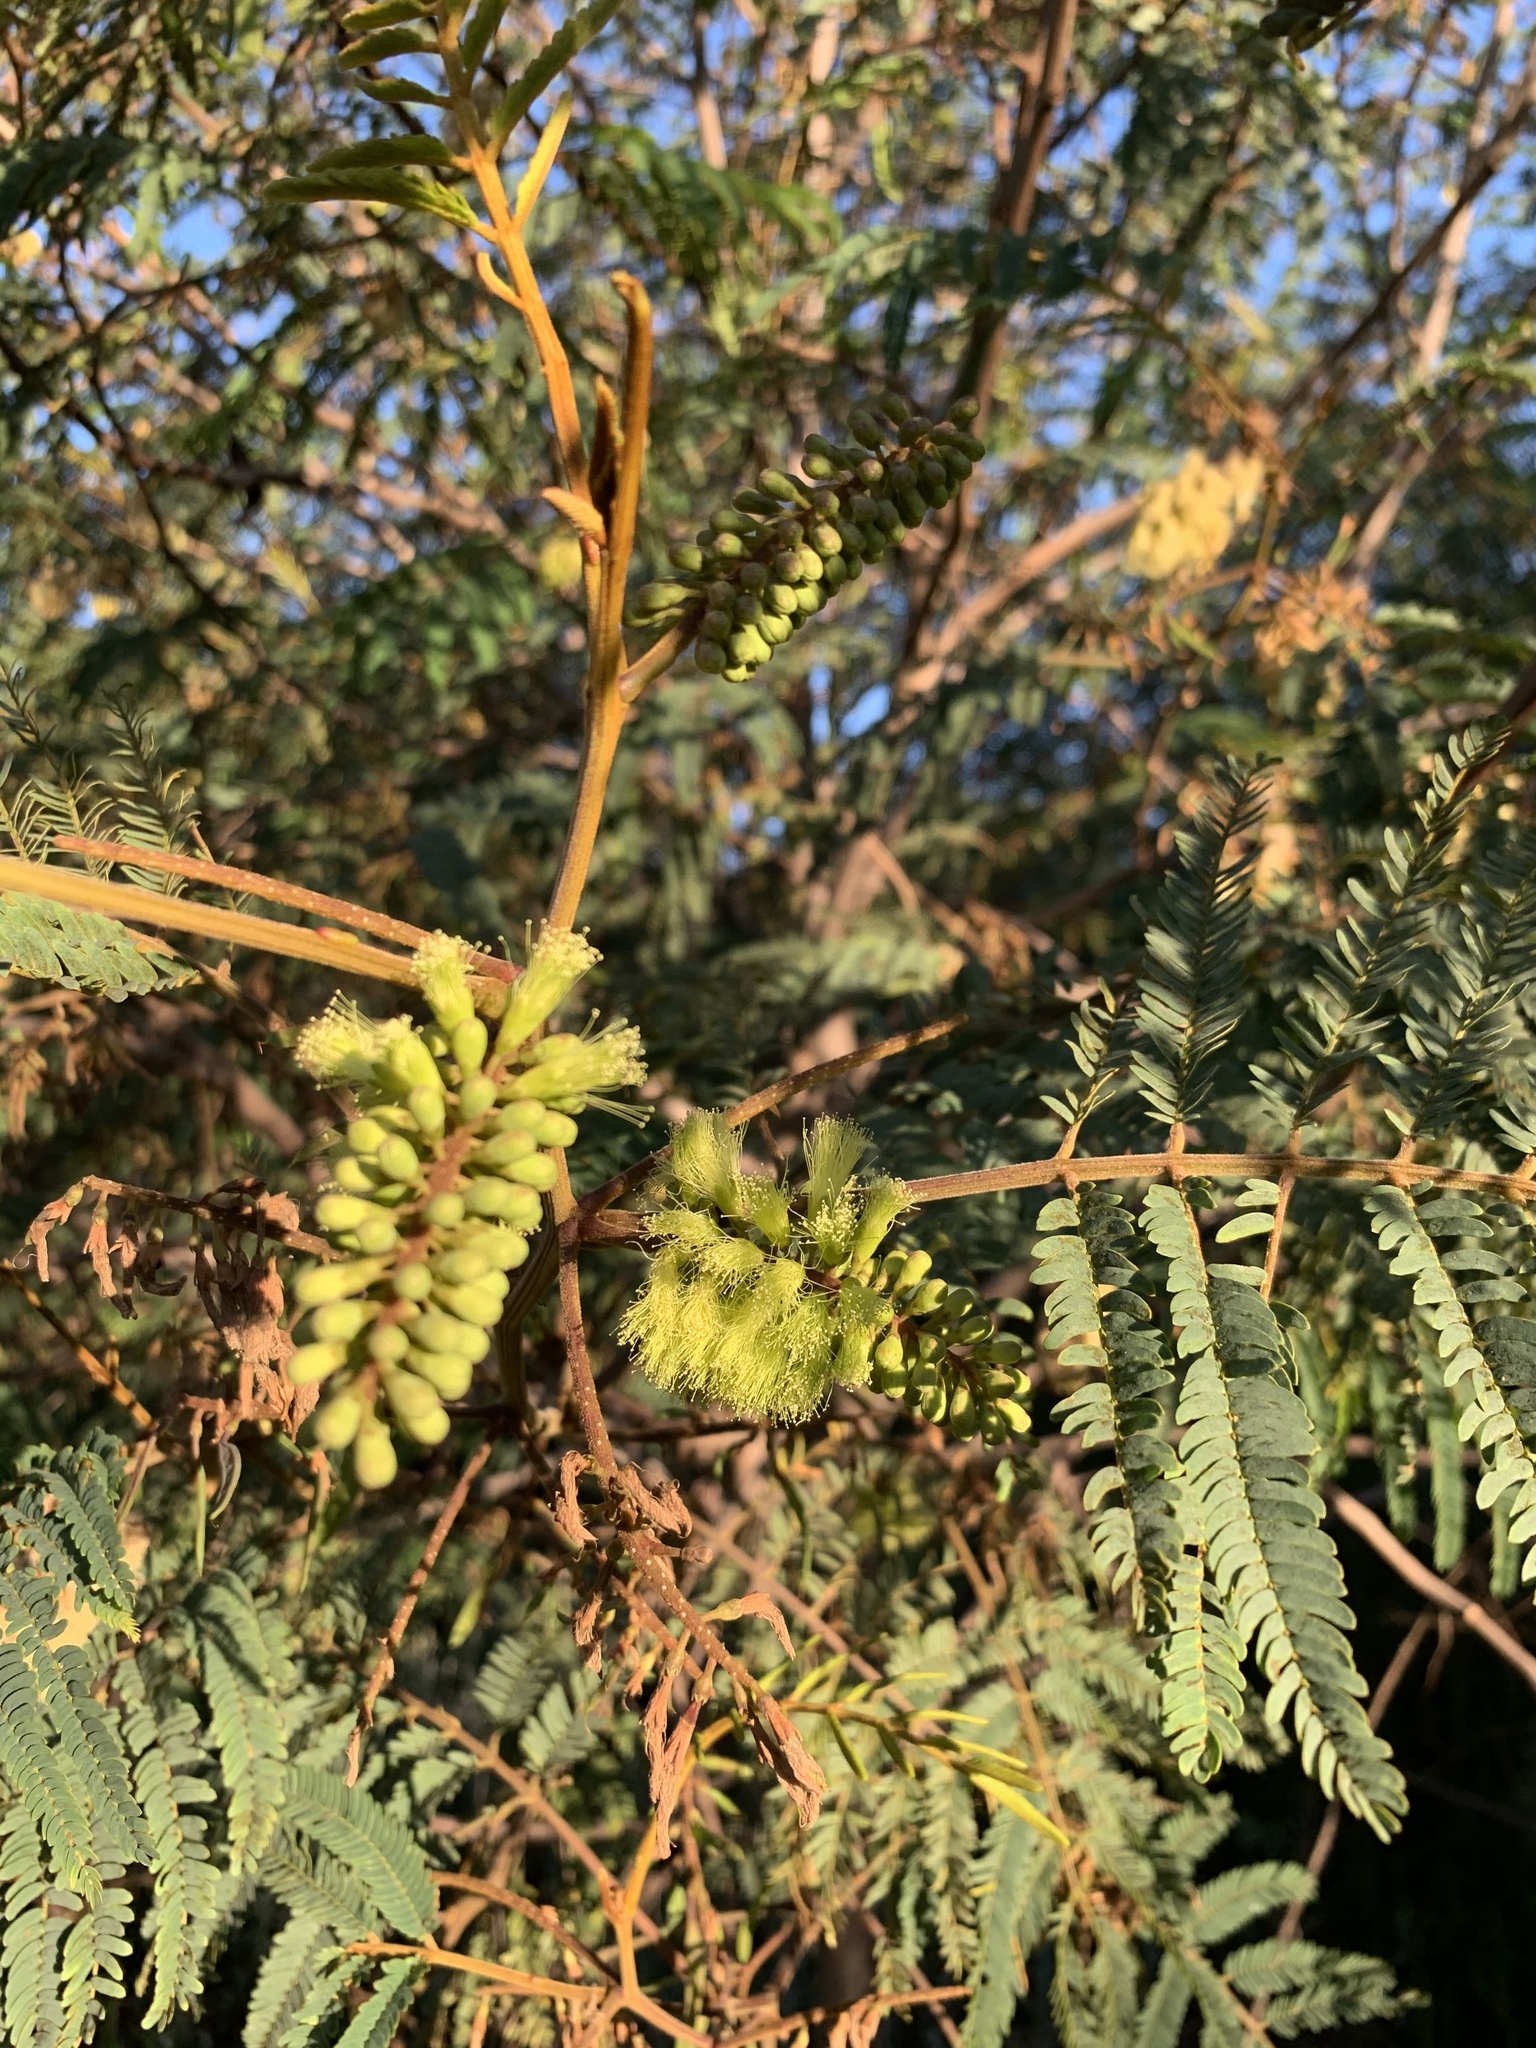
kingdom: Plantae
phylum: Tracheophyta
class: Magnoliopsida
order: Fabales
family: Fabaceae
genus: Paraserianthes
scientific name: Paraserianthes lophantha
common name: Plume albizia
